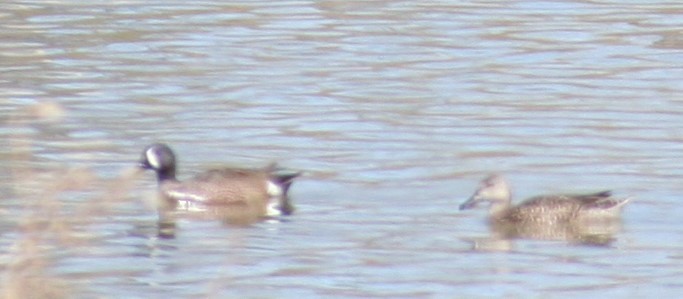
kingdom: Animalia
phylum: Chordata
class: Aves
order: Anseriformes
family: Anatidae
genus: Spatula
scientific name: Spatula discors
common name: Blue-winged teal
